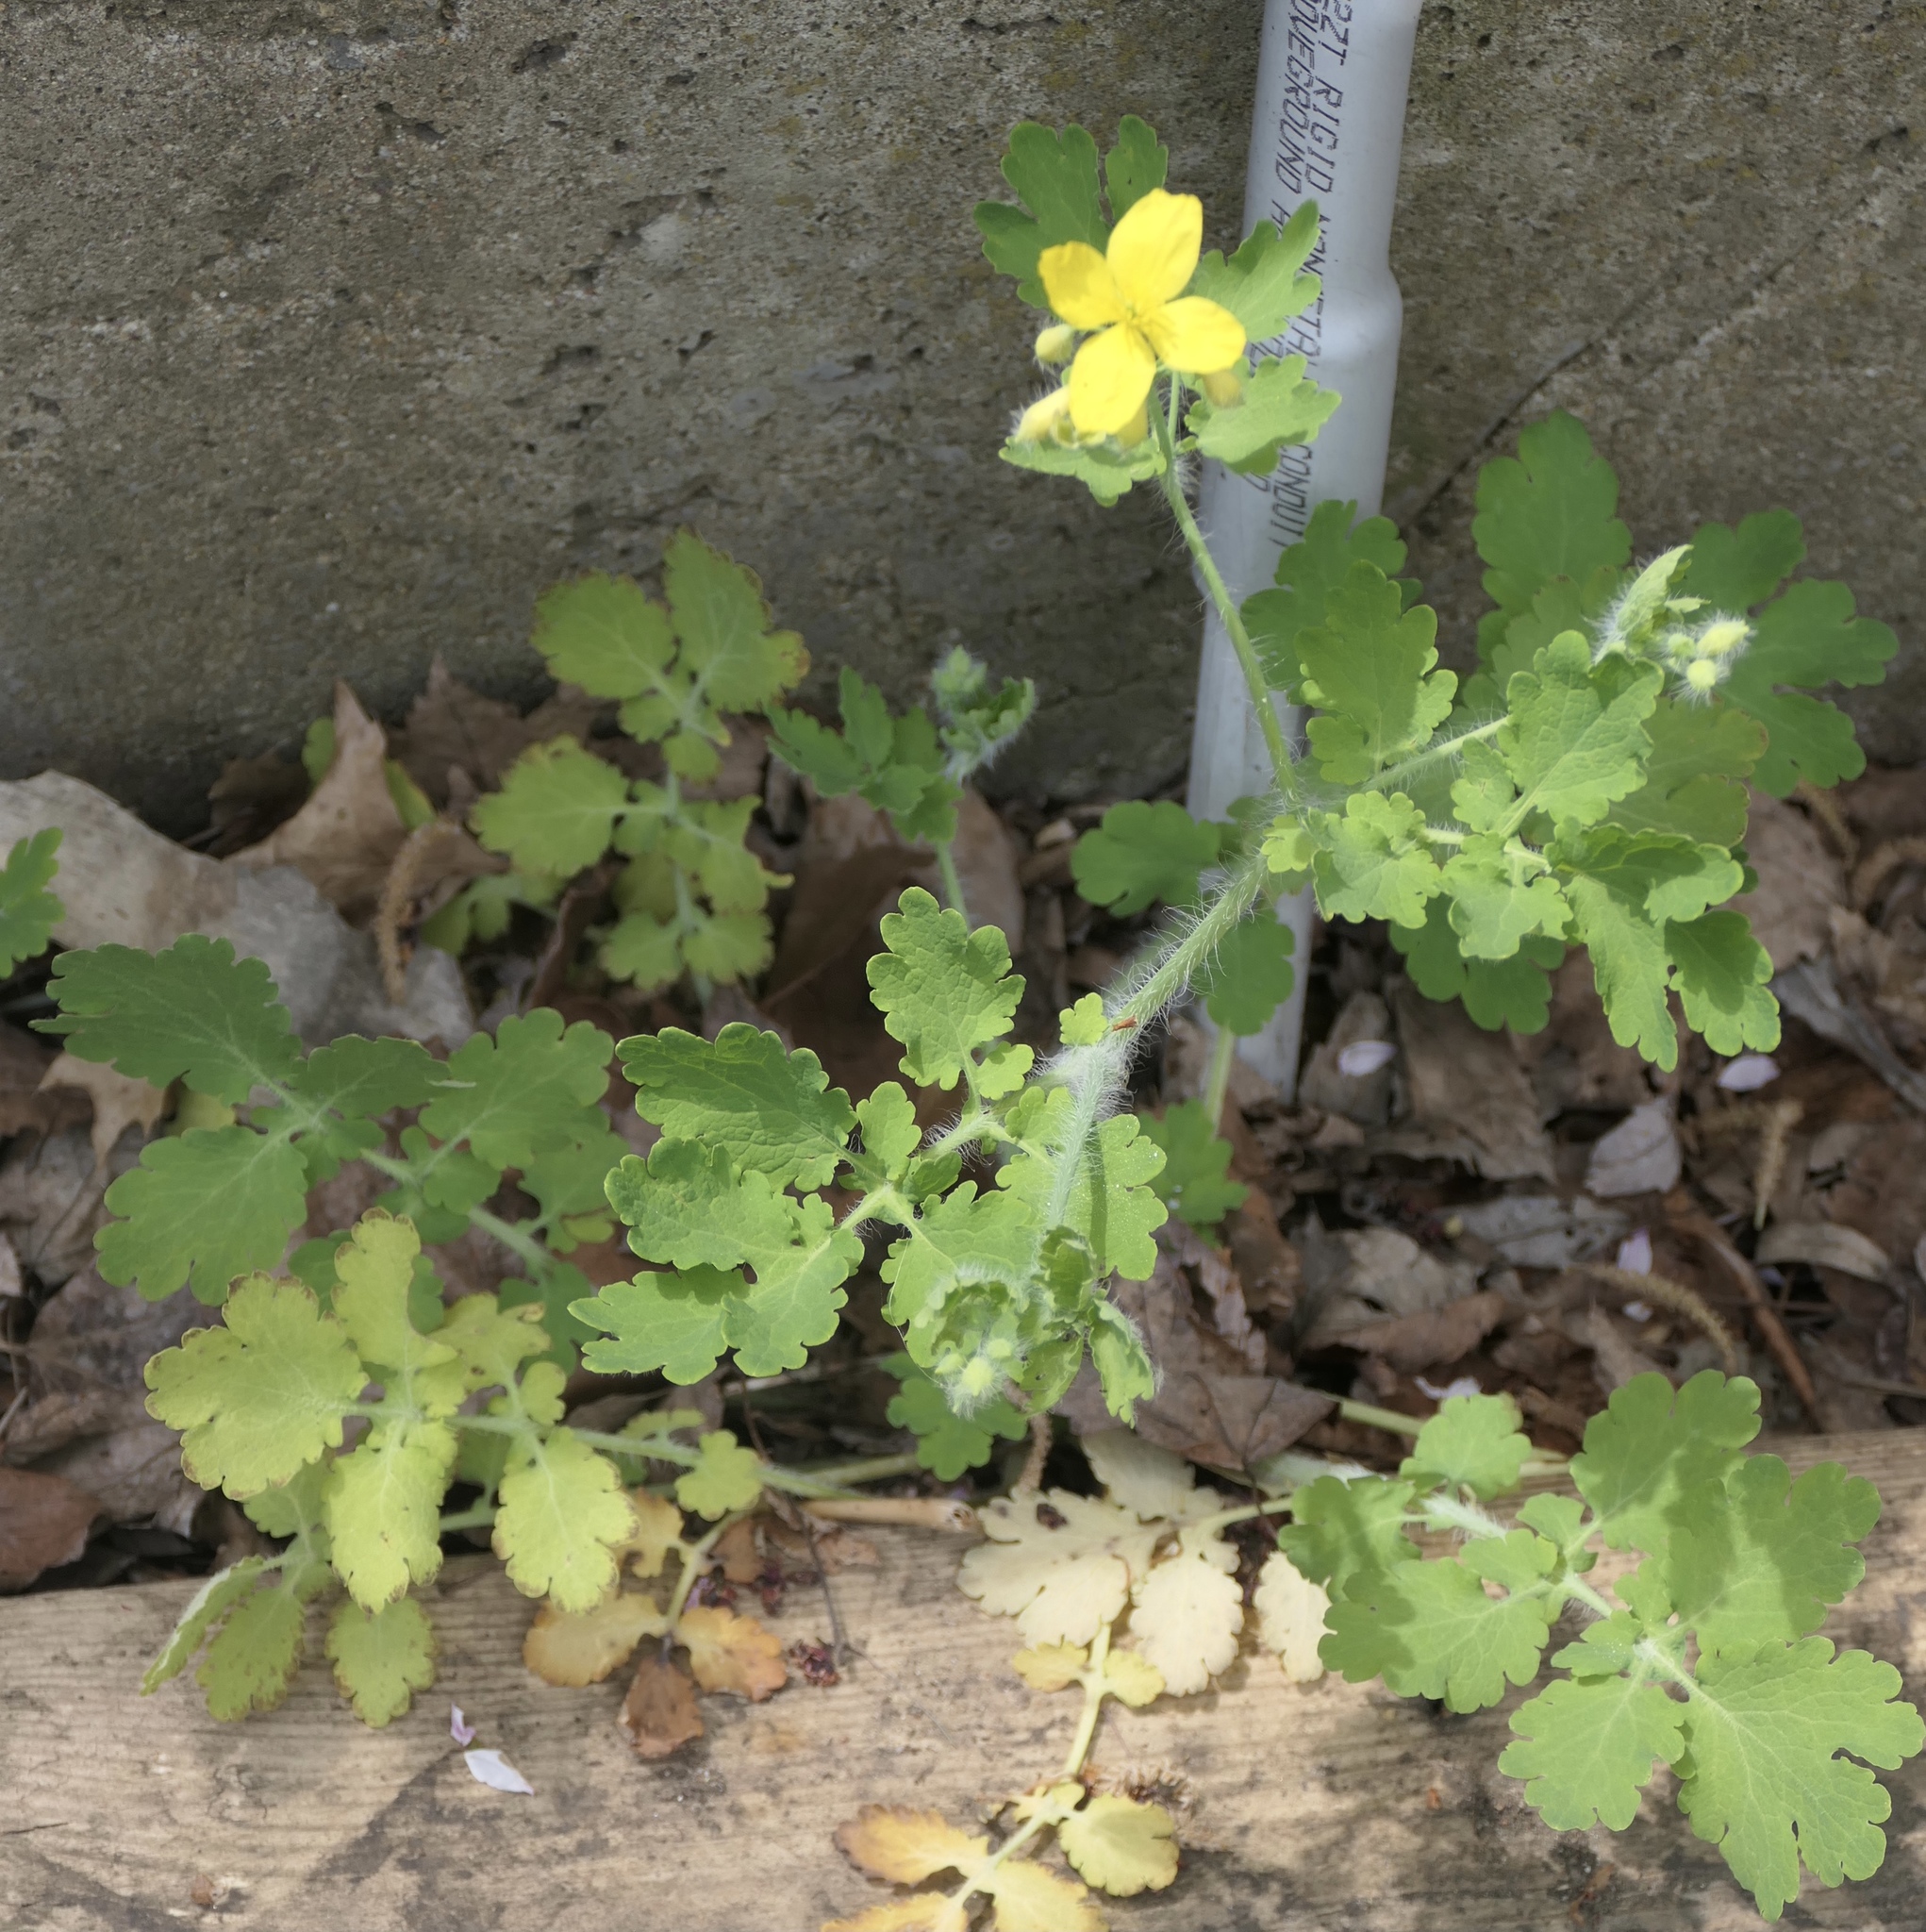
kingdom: Plantae
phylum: Tracheophyta
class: Magnoliopsida
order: Ranunculales
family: Papaveraceae
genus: Chelidonium
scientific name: Chelidonium majus
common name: Greater celandine
